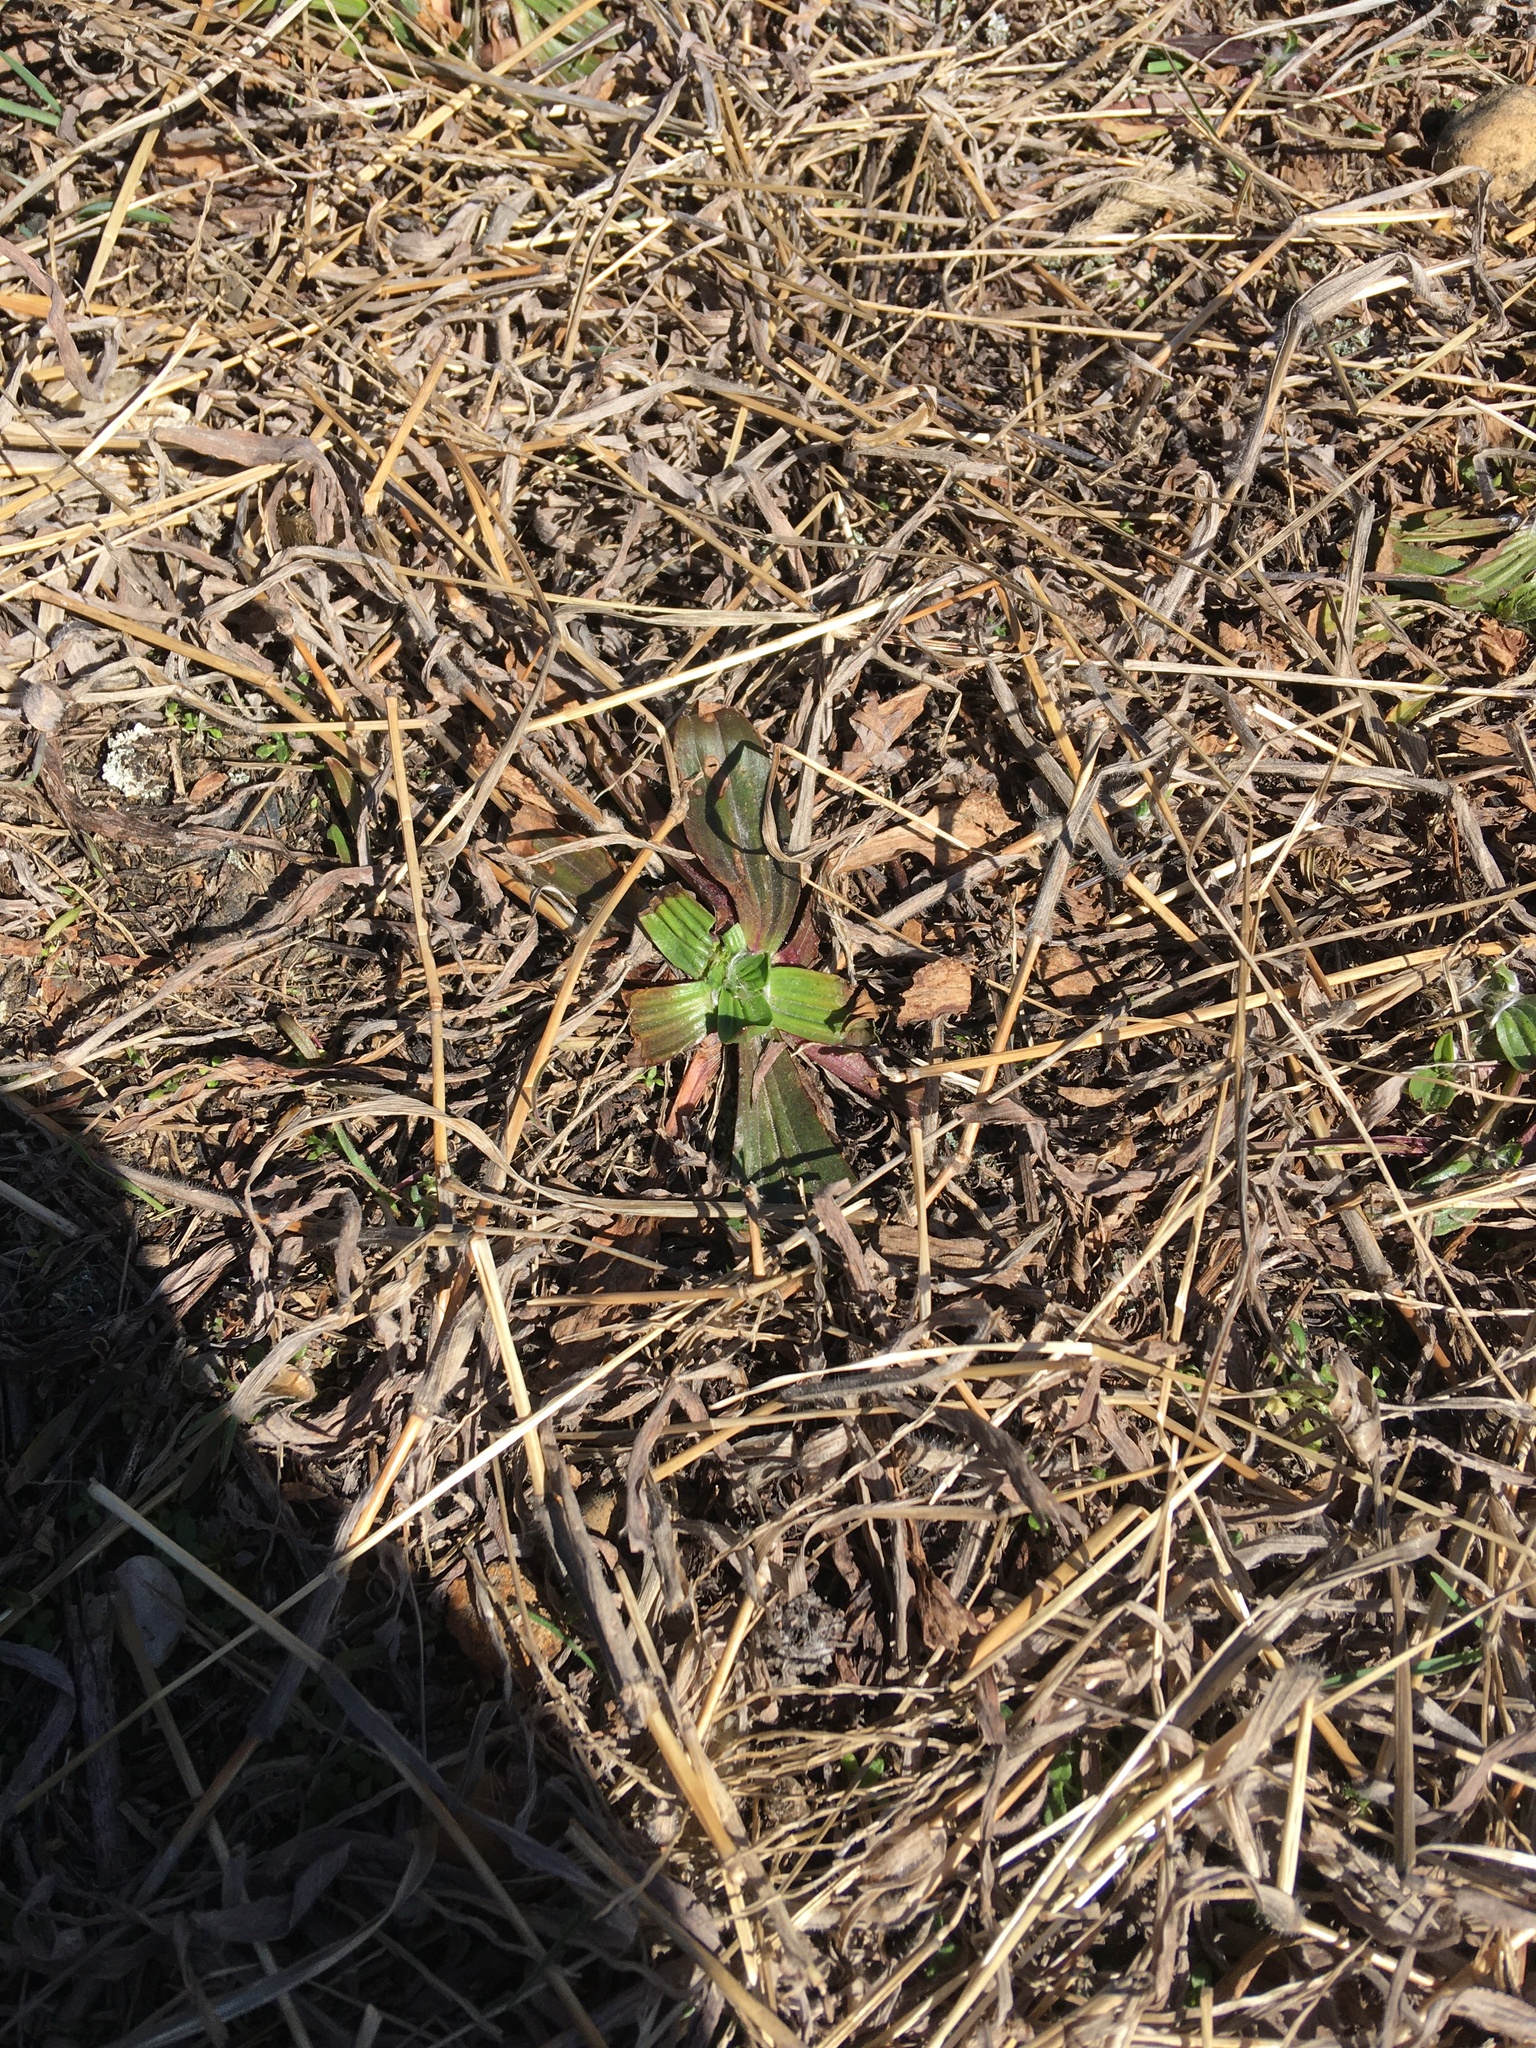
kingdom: Plantae
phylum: Tracheophyta
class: Magnoliopsida
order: Lamiales
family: Plantaginaceae
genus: Plantago
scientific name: Plantago lanceolata
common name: Ribwort plantain
